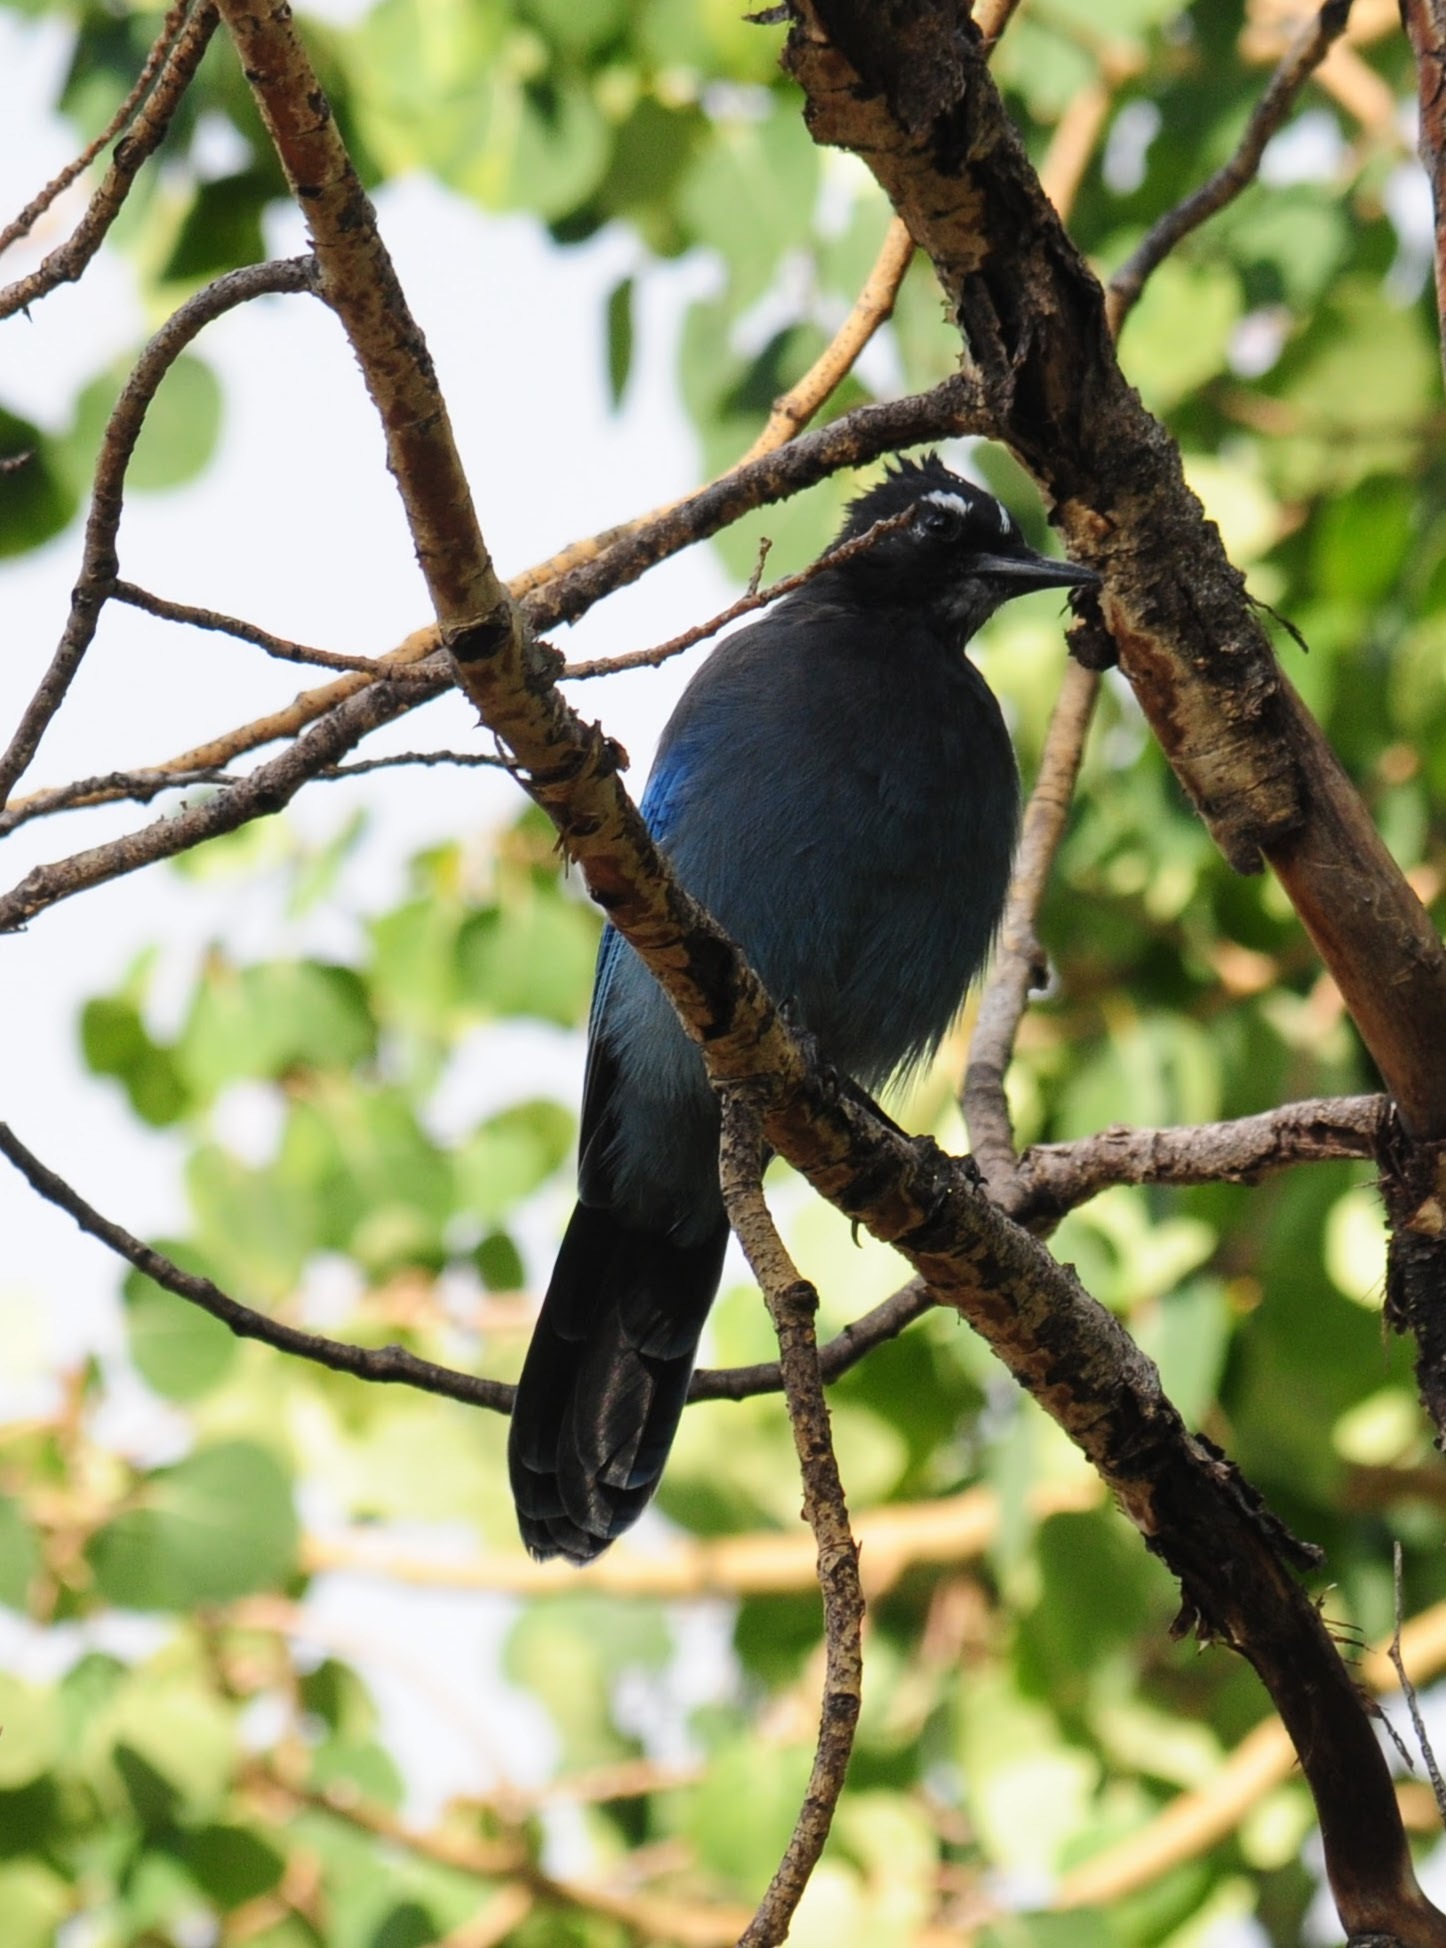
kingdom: Animalia
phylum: Chordata
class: Aves
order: Passeriformes
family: Corvidae
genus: Cyanocitta
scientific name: Cyanocitta stelleri
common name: Steller's jay
